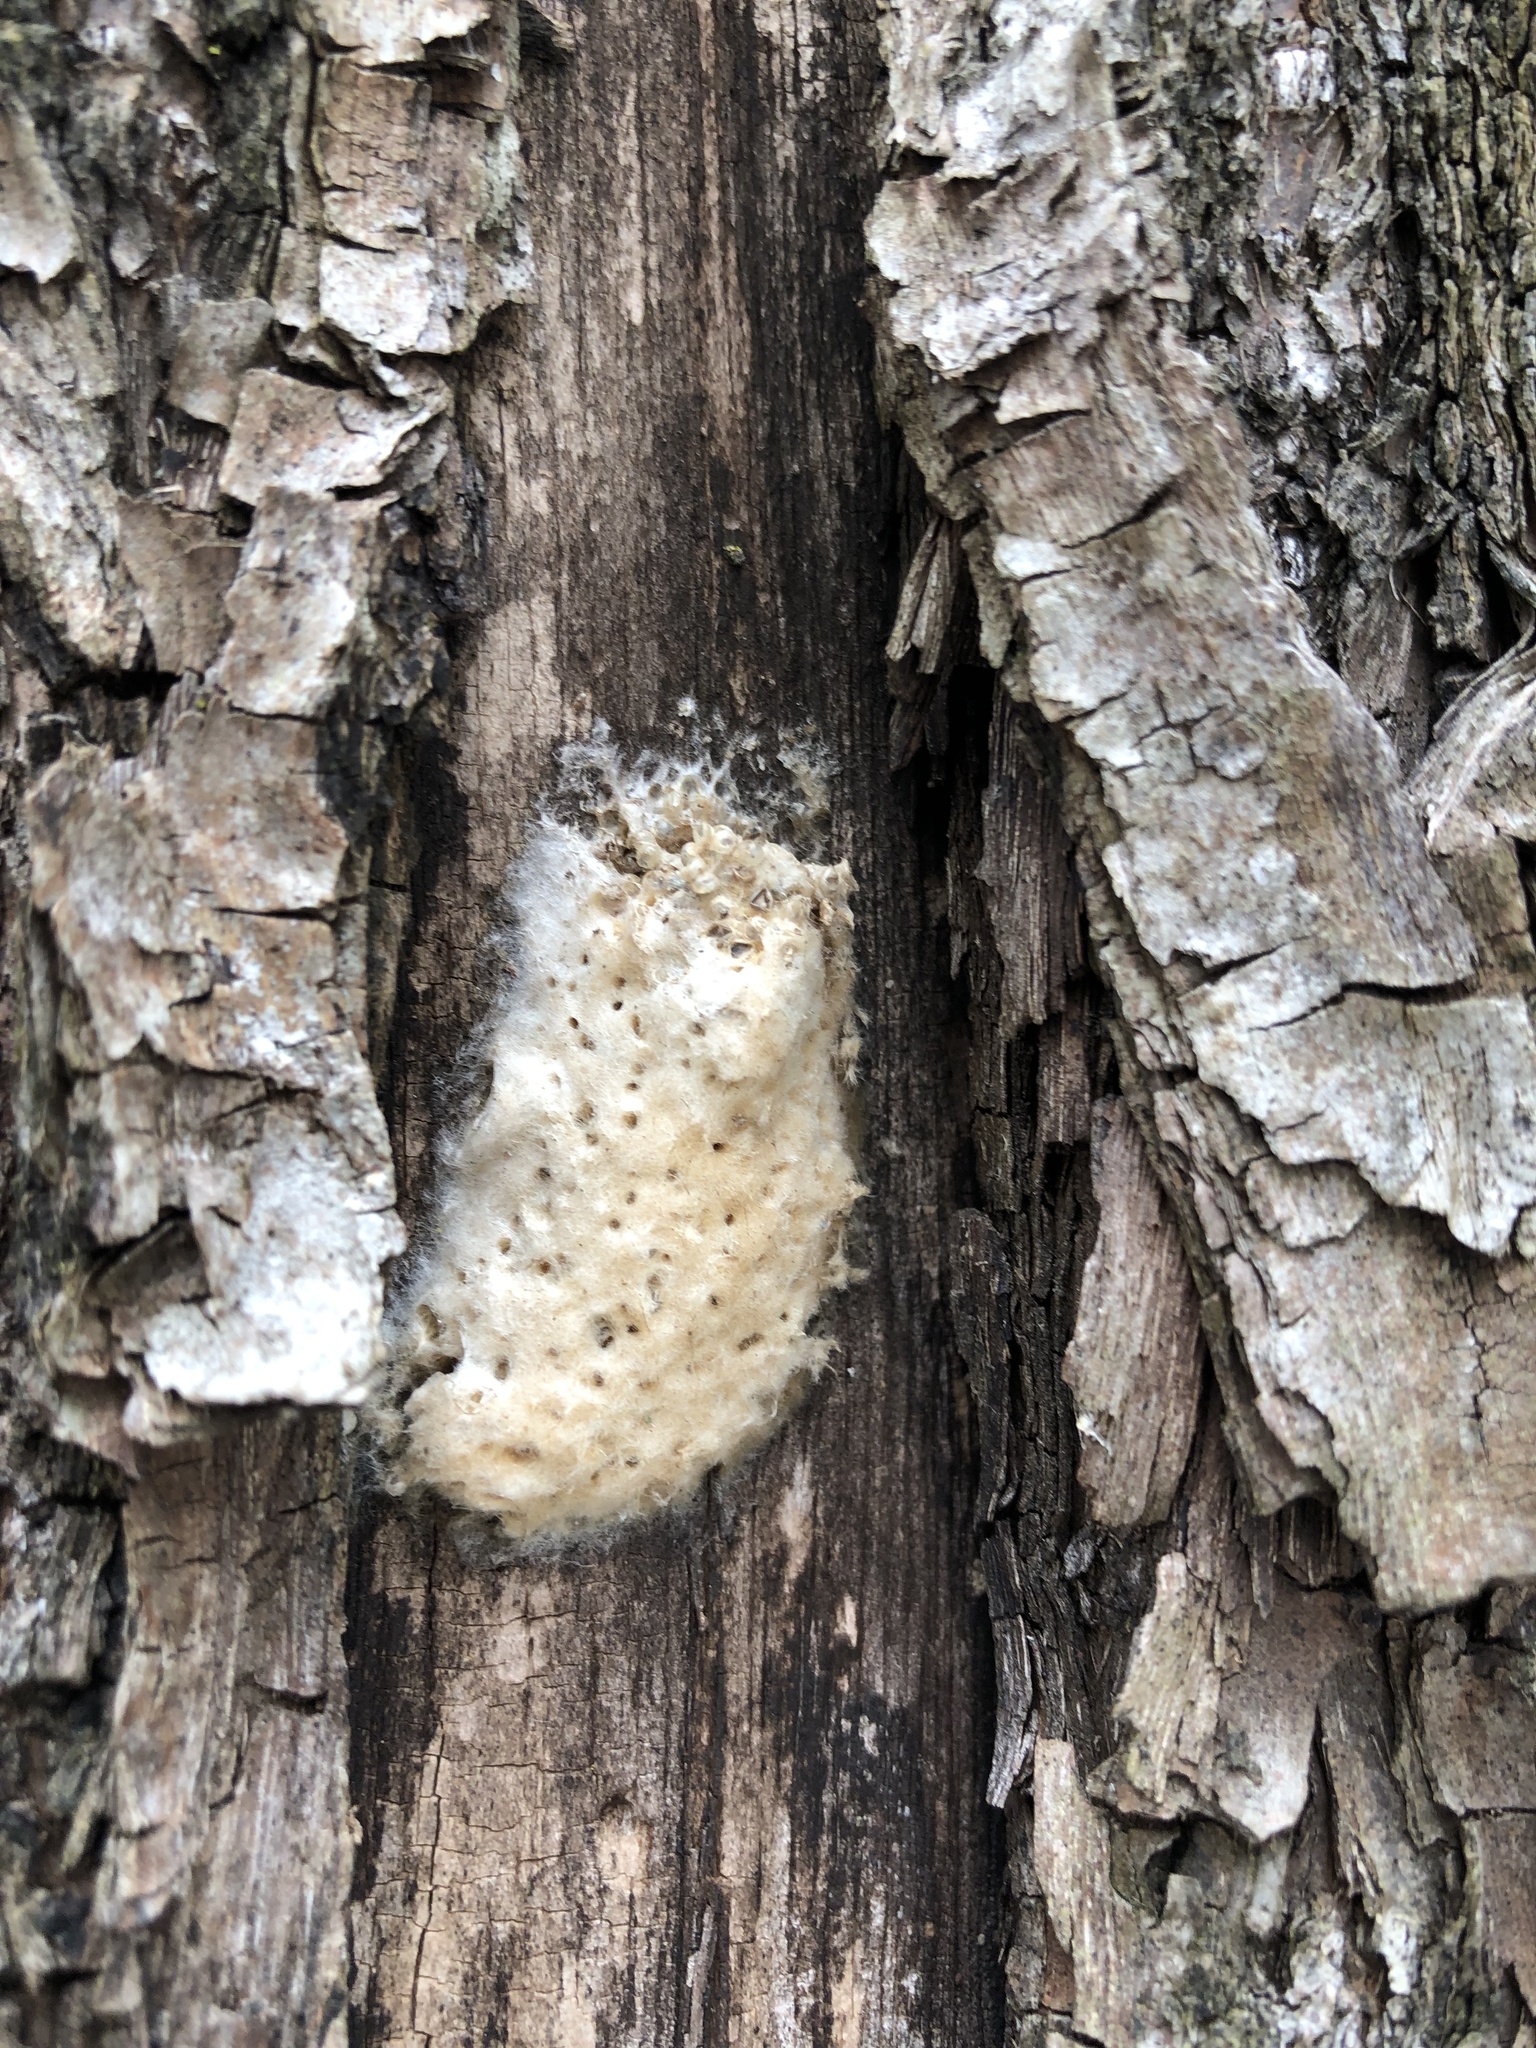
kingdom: Animalia
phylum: Arthropoda
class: Insecta
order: Lepidoptera
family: Erebidae
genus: Lymantria
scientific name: Lymantria dispar
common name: Gypsy moth
